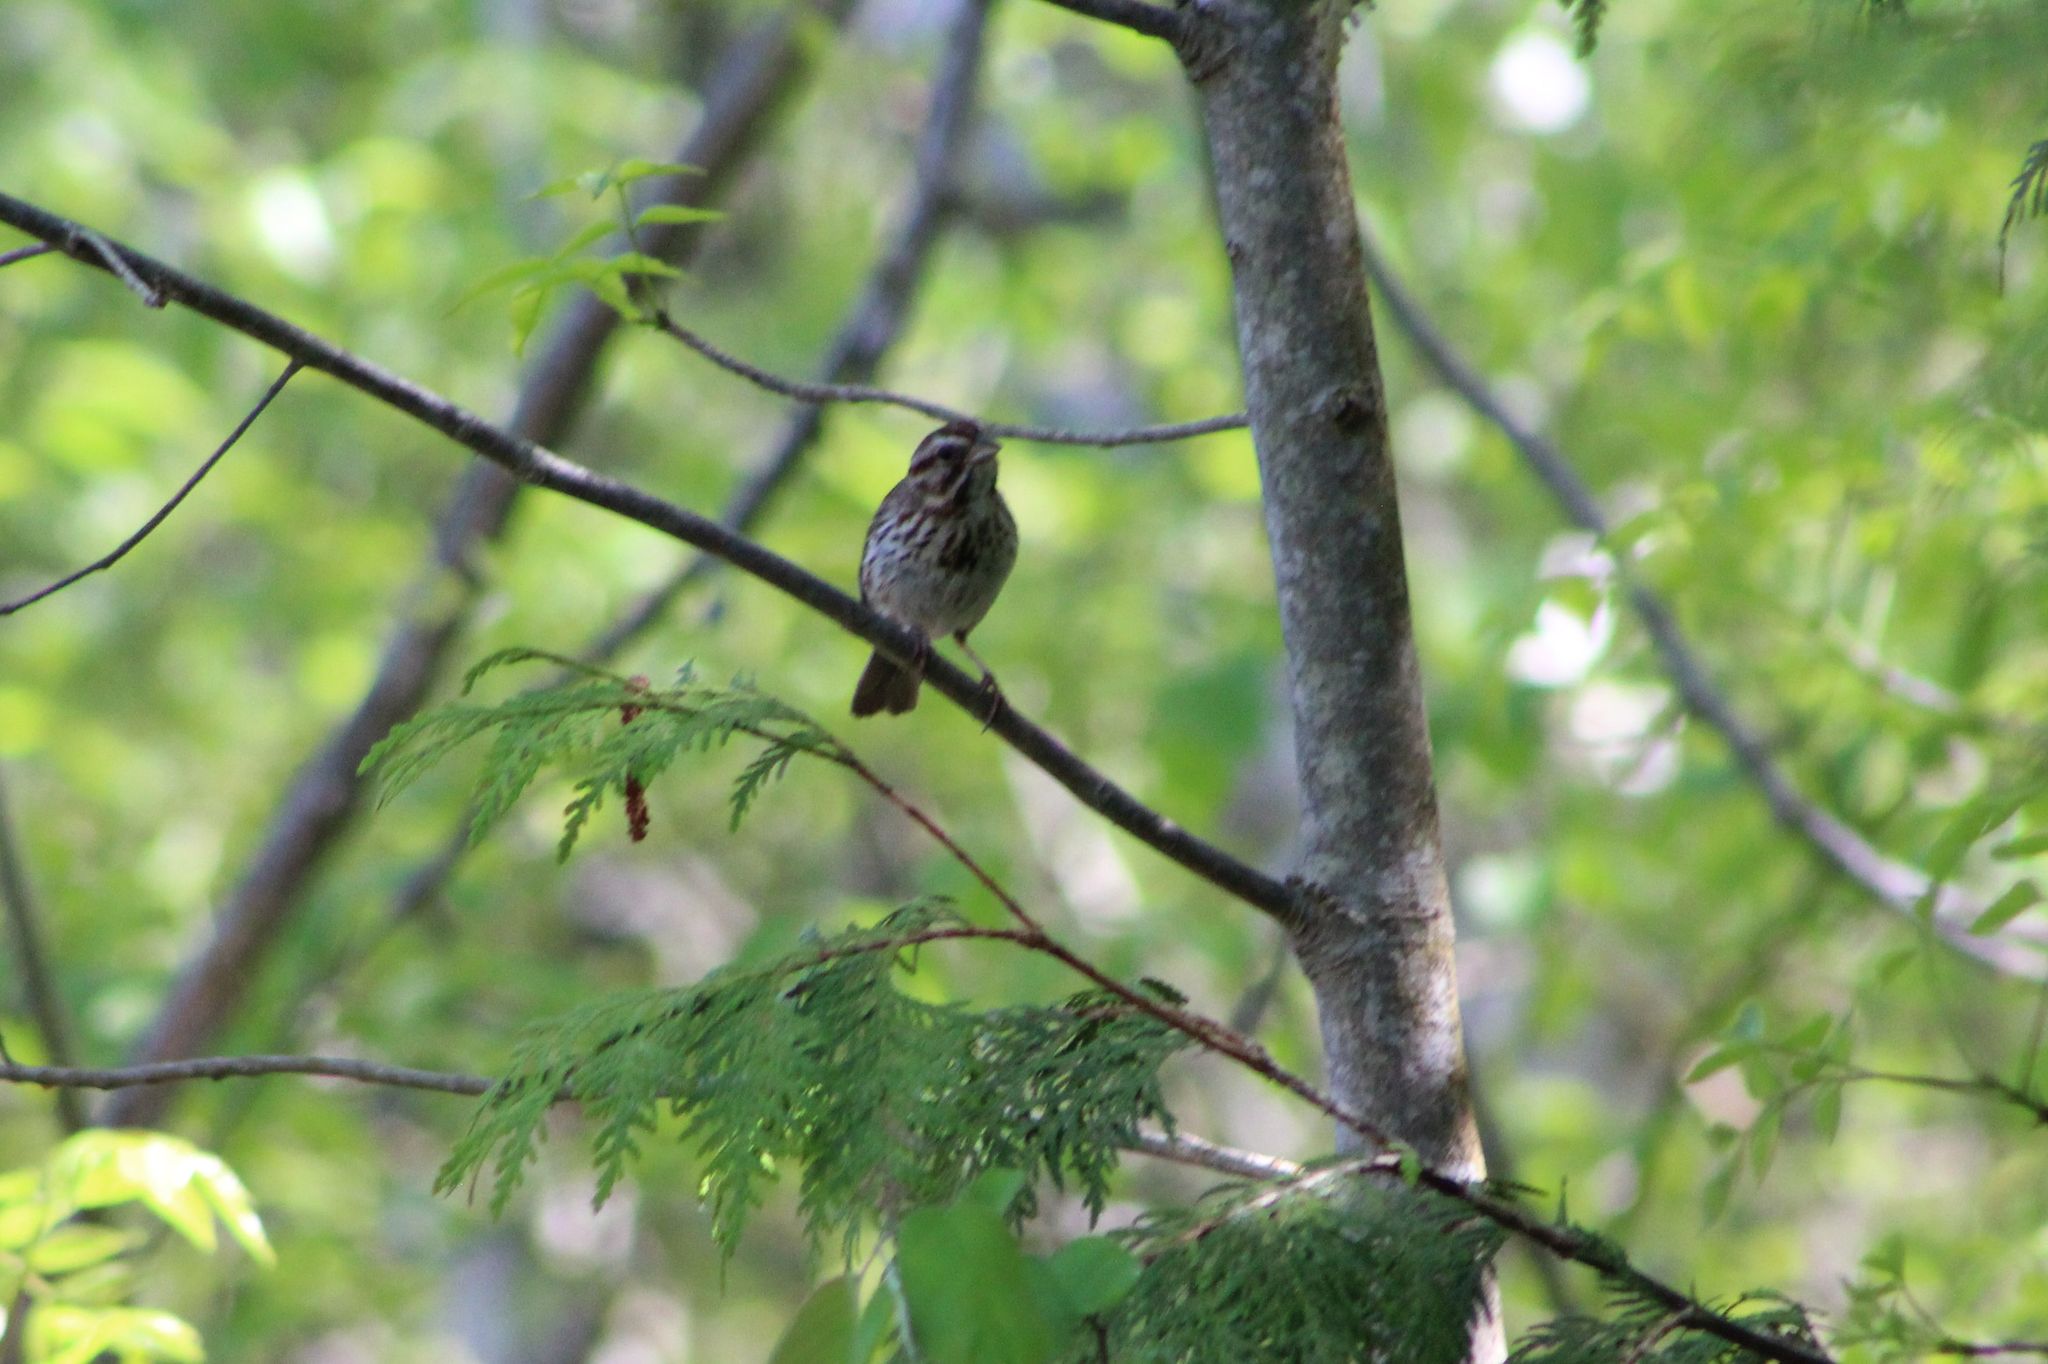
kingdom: Animalia
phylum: Chordata
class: Aves
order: Passeriformes
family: Passerellidae
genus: Melospiza
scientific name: Melospiza melodia
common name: Song sparrow
